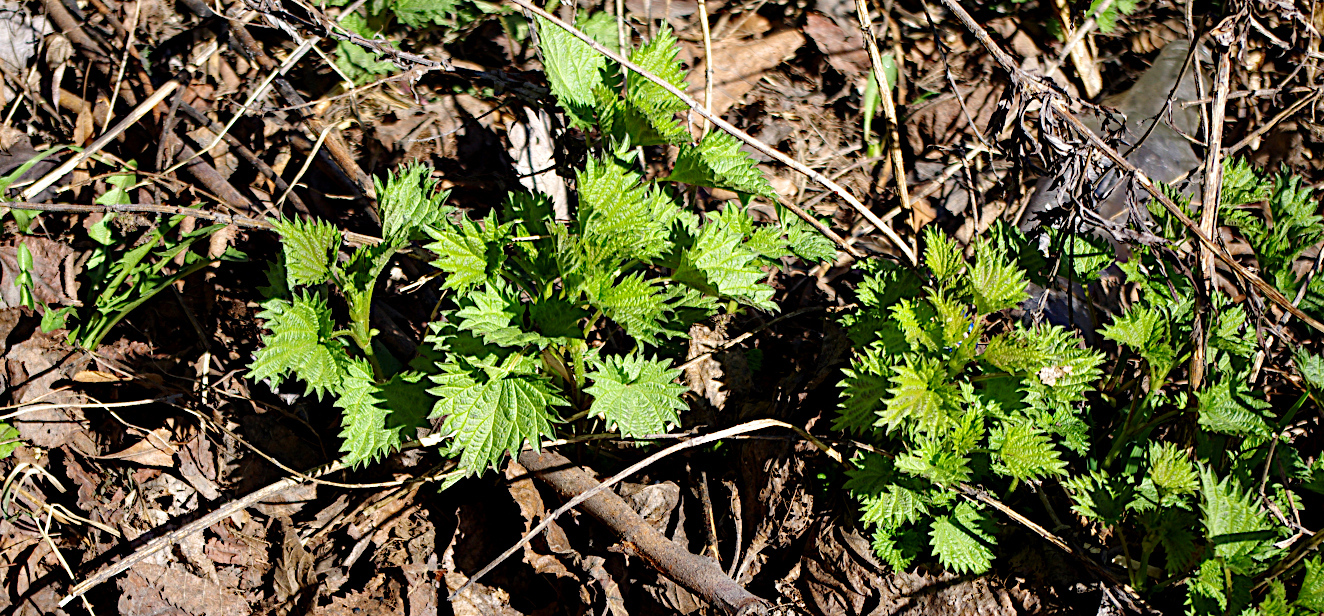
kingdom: Plantae
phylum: Tracheophyta
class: Magnoliopsida
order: Rosales
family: Urticaceae
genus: Urtica
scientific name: Urtica dioica
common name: Common nettle
